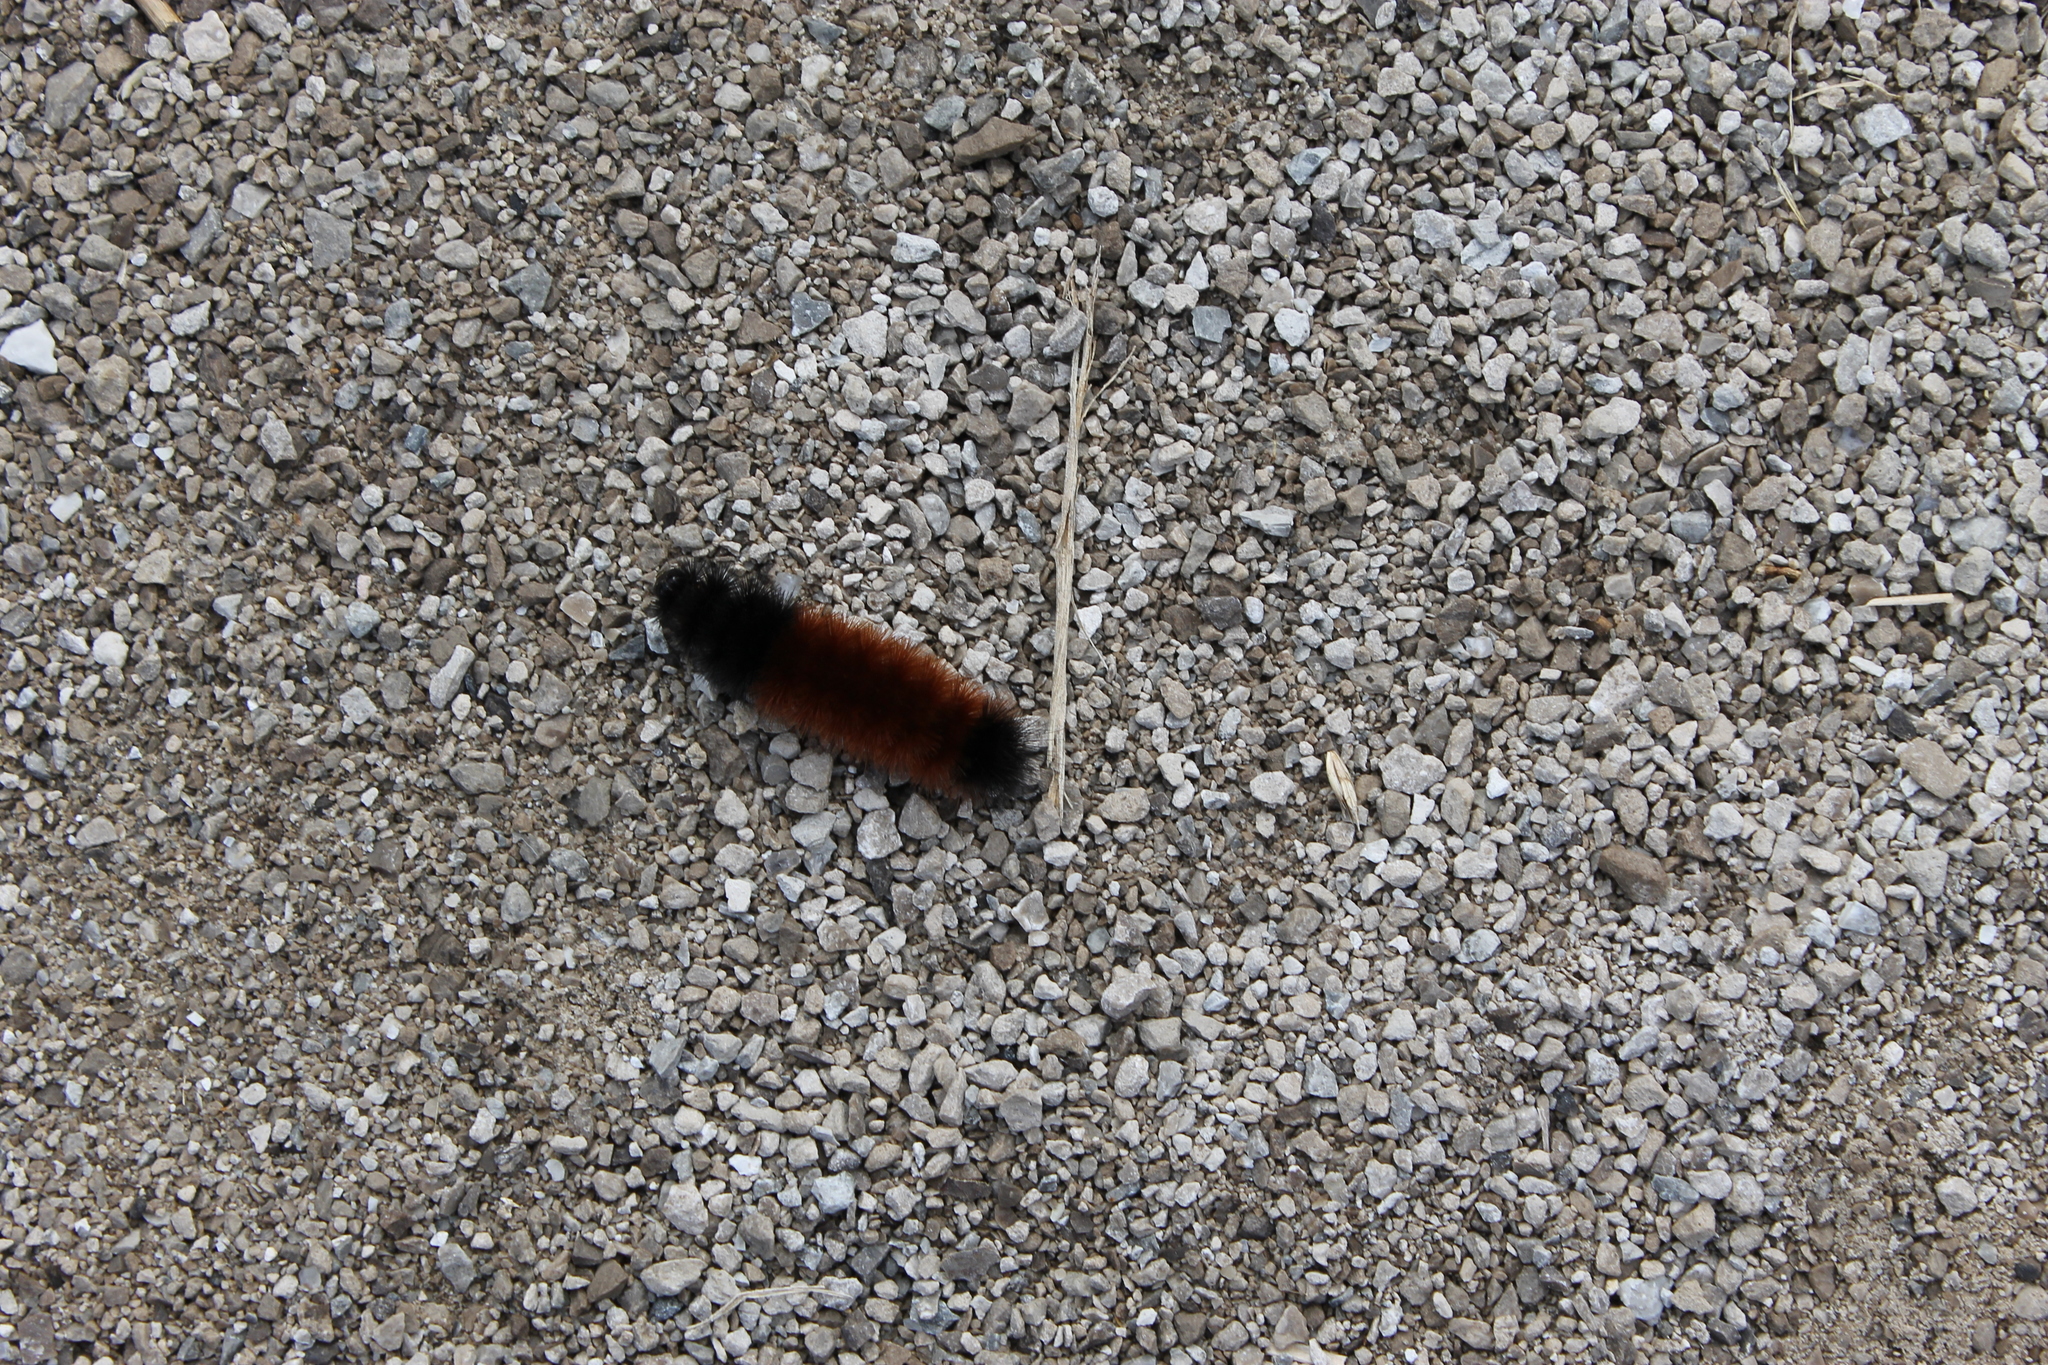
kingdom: Animalia
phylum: Arthropoda
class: Insecta
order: Lepidoptera
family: Erebidae
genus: Pyrrharctia
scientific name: Pyrrharctia isabella
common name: Isabella tiger moth
